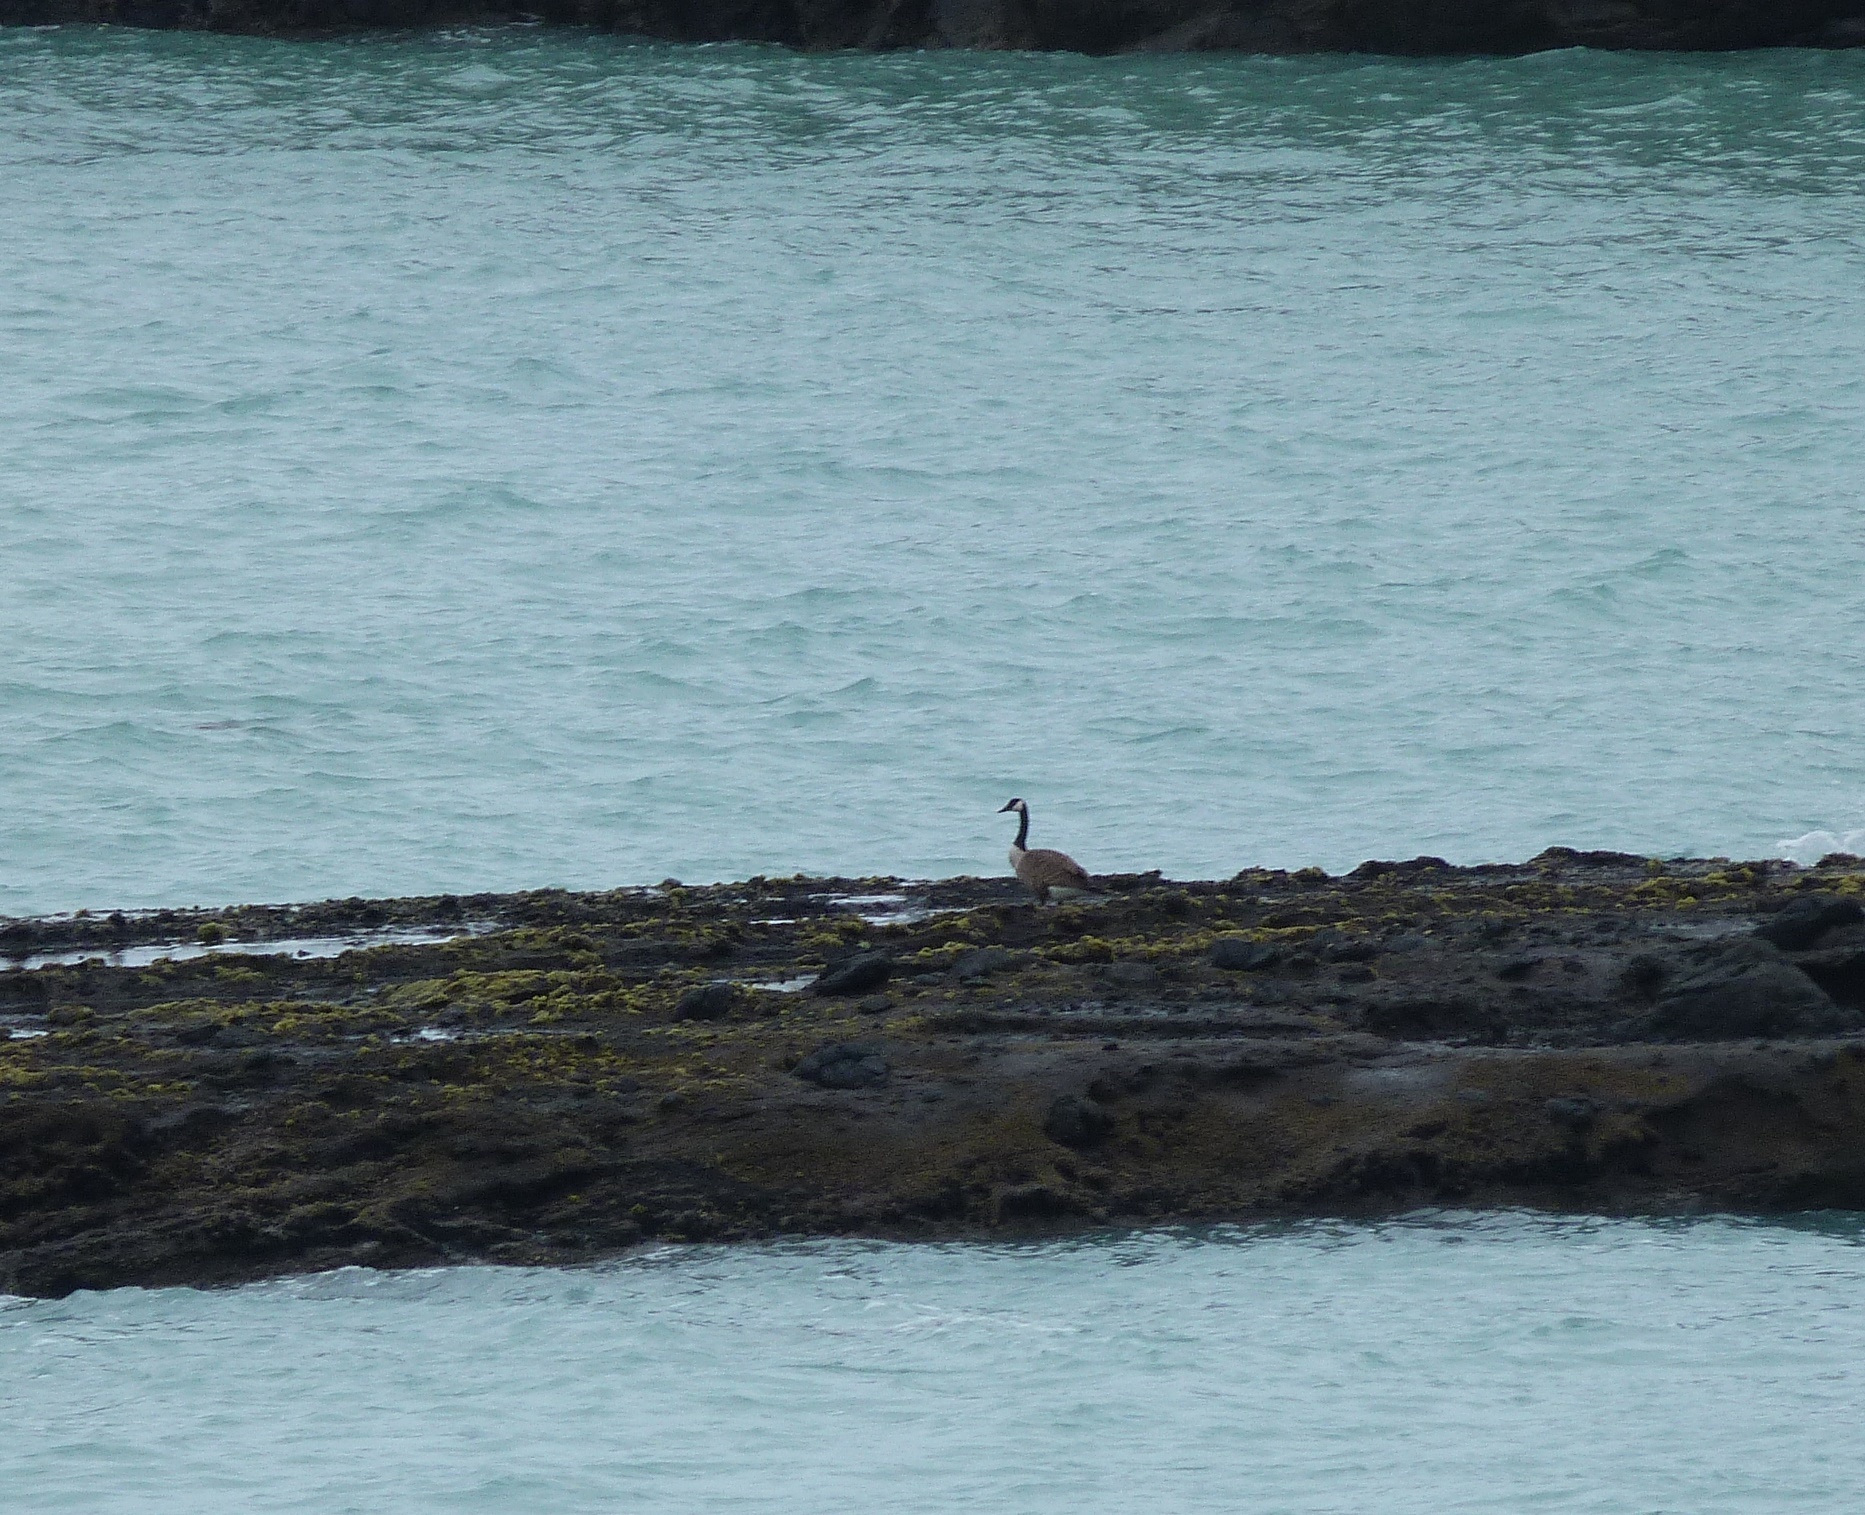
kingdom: Animalia
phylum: Chordata
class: Aves
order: Anseriformes
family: Anatidae
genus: Branta
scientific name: Branta canadensis
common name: Canada goose
